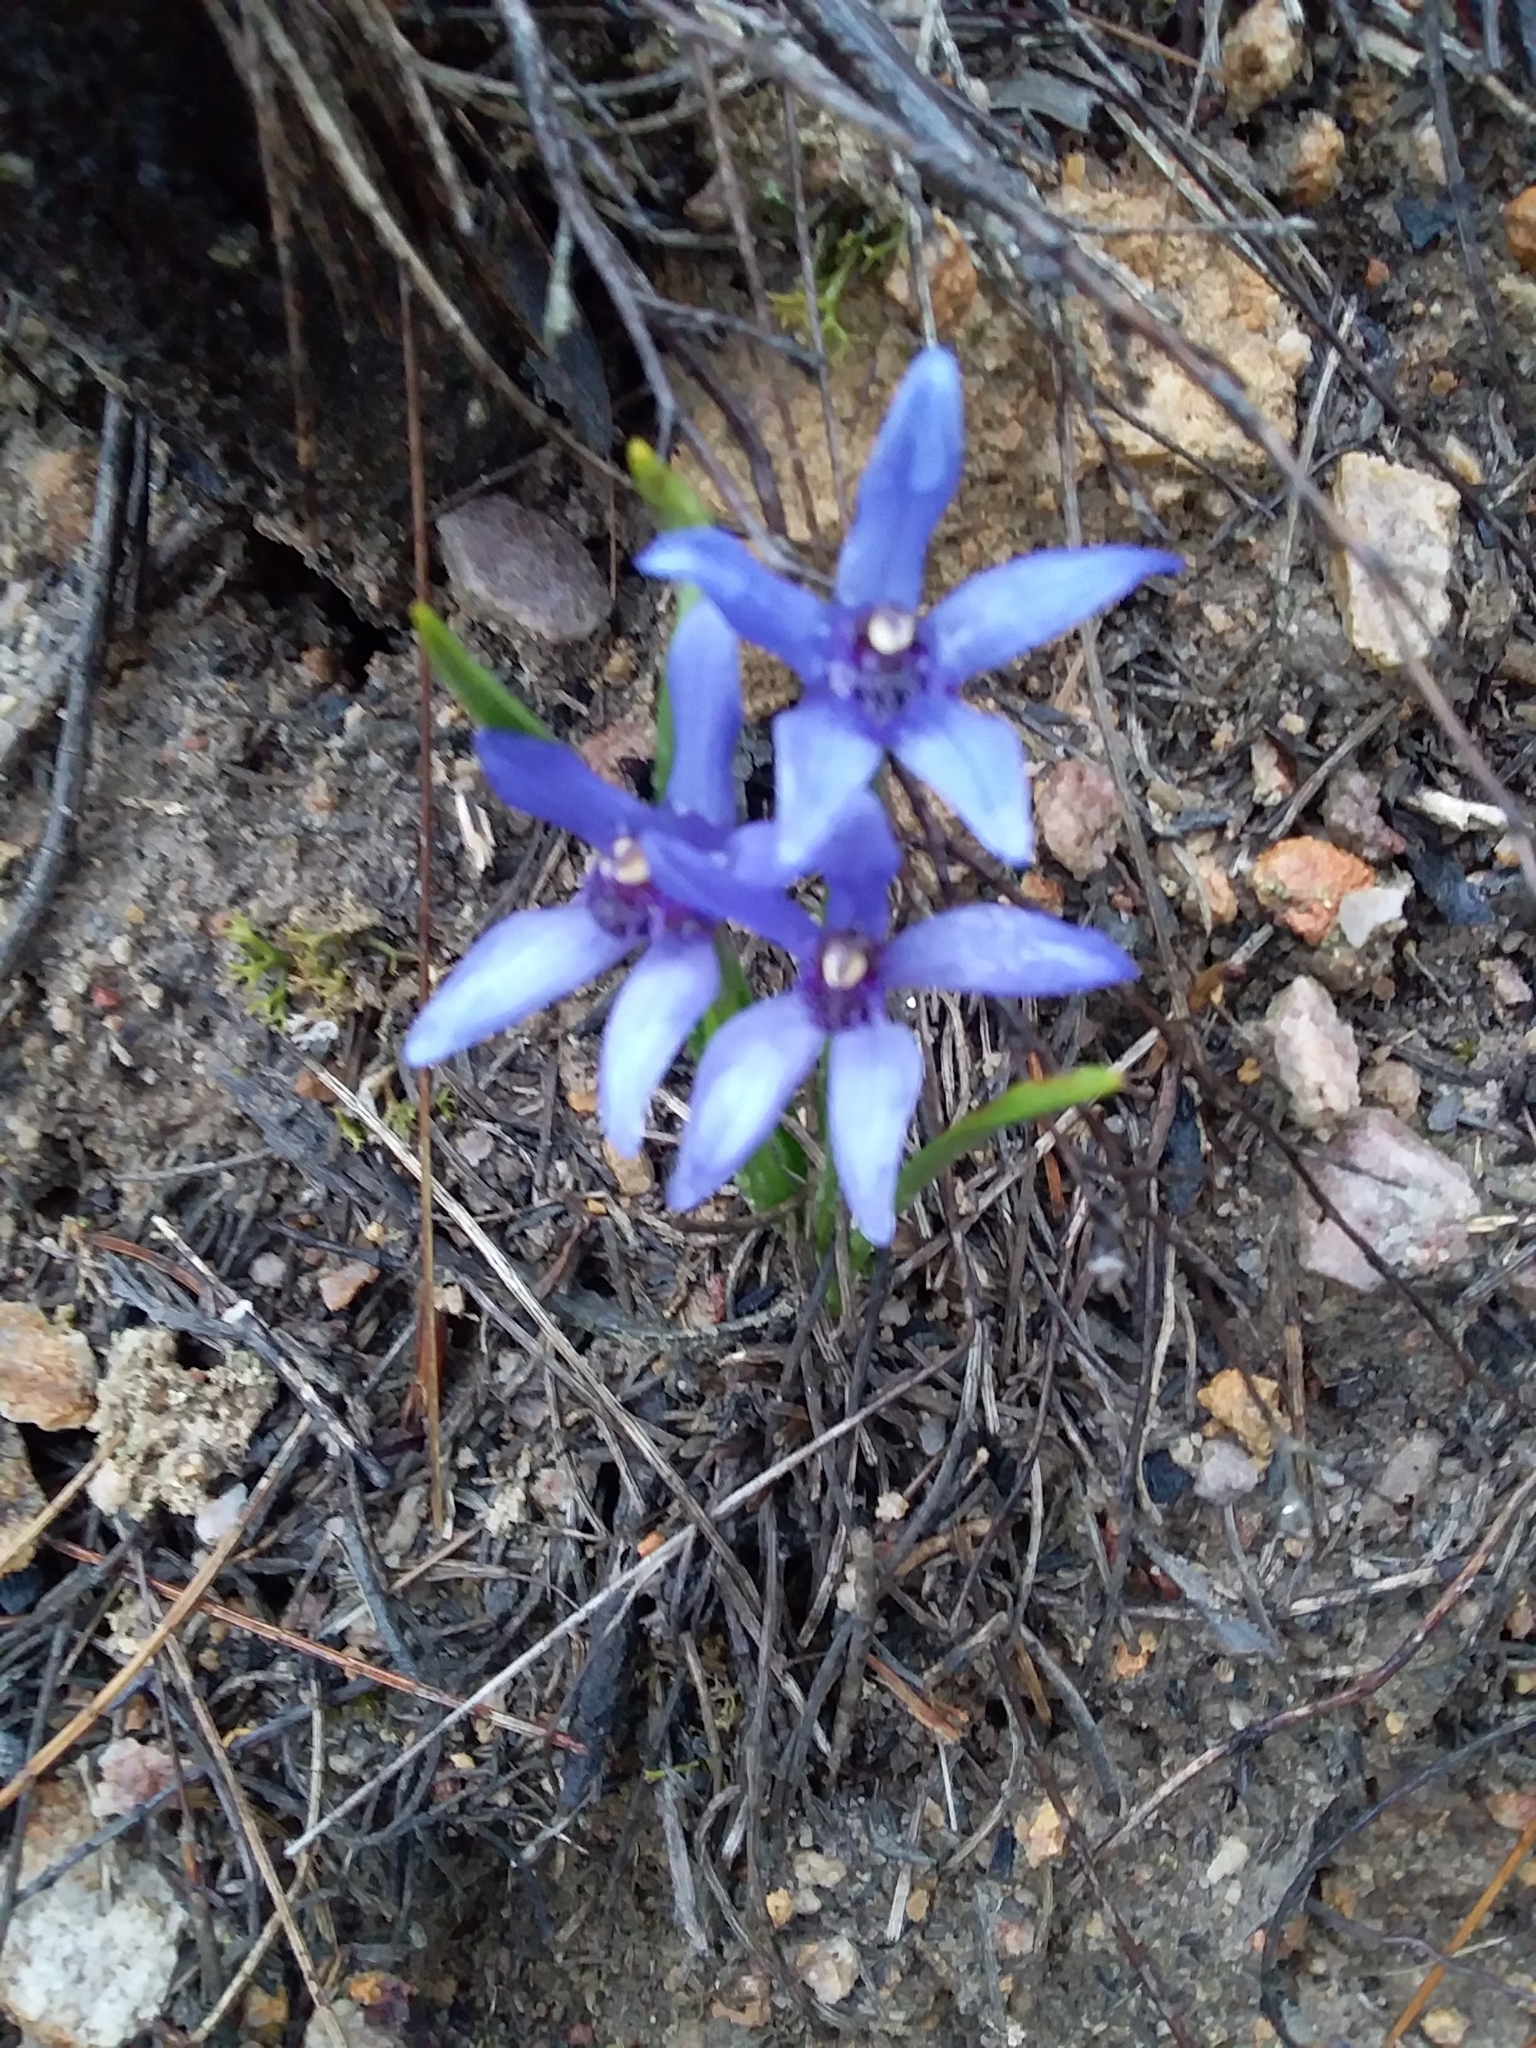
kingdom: Plantae
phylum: Tracheophyta
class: Liliopsida
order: Asparagales
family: Orchidaceae
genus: Pheladenia
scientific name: Pheladenia deformis
